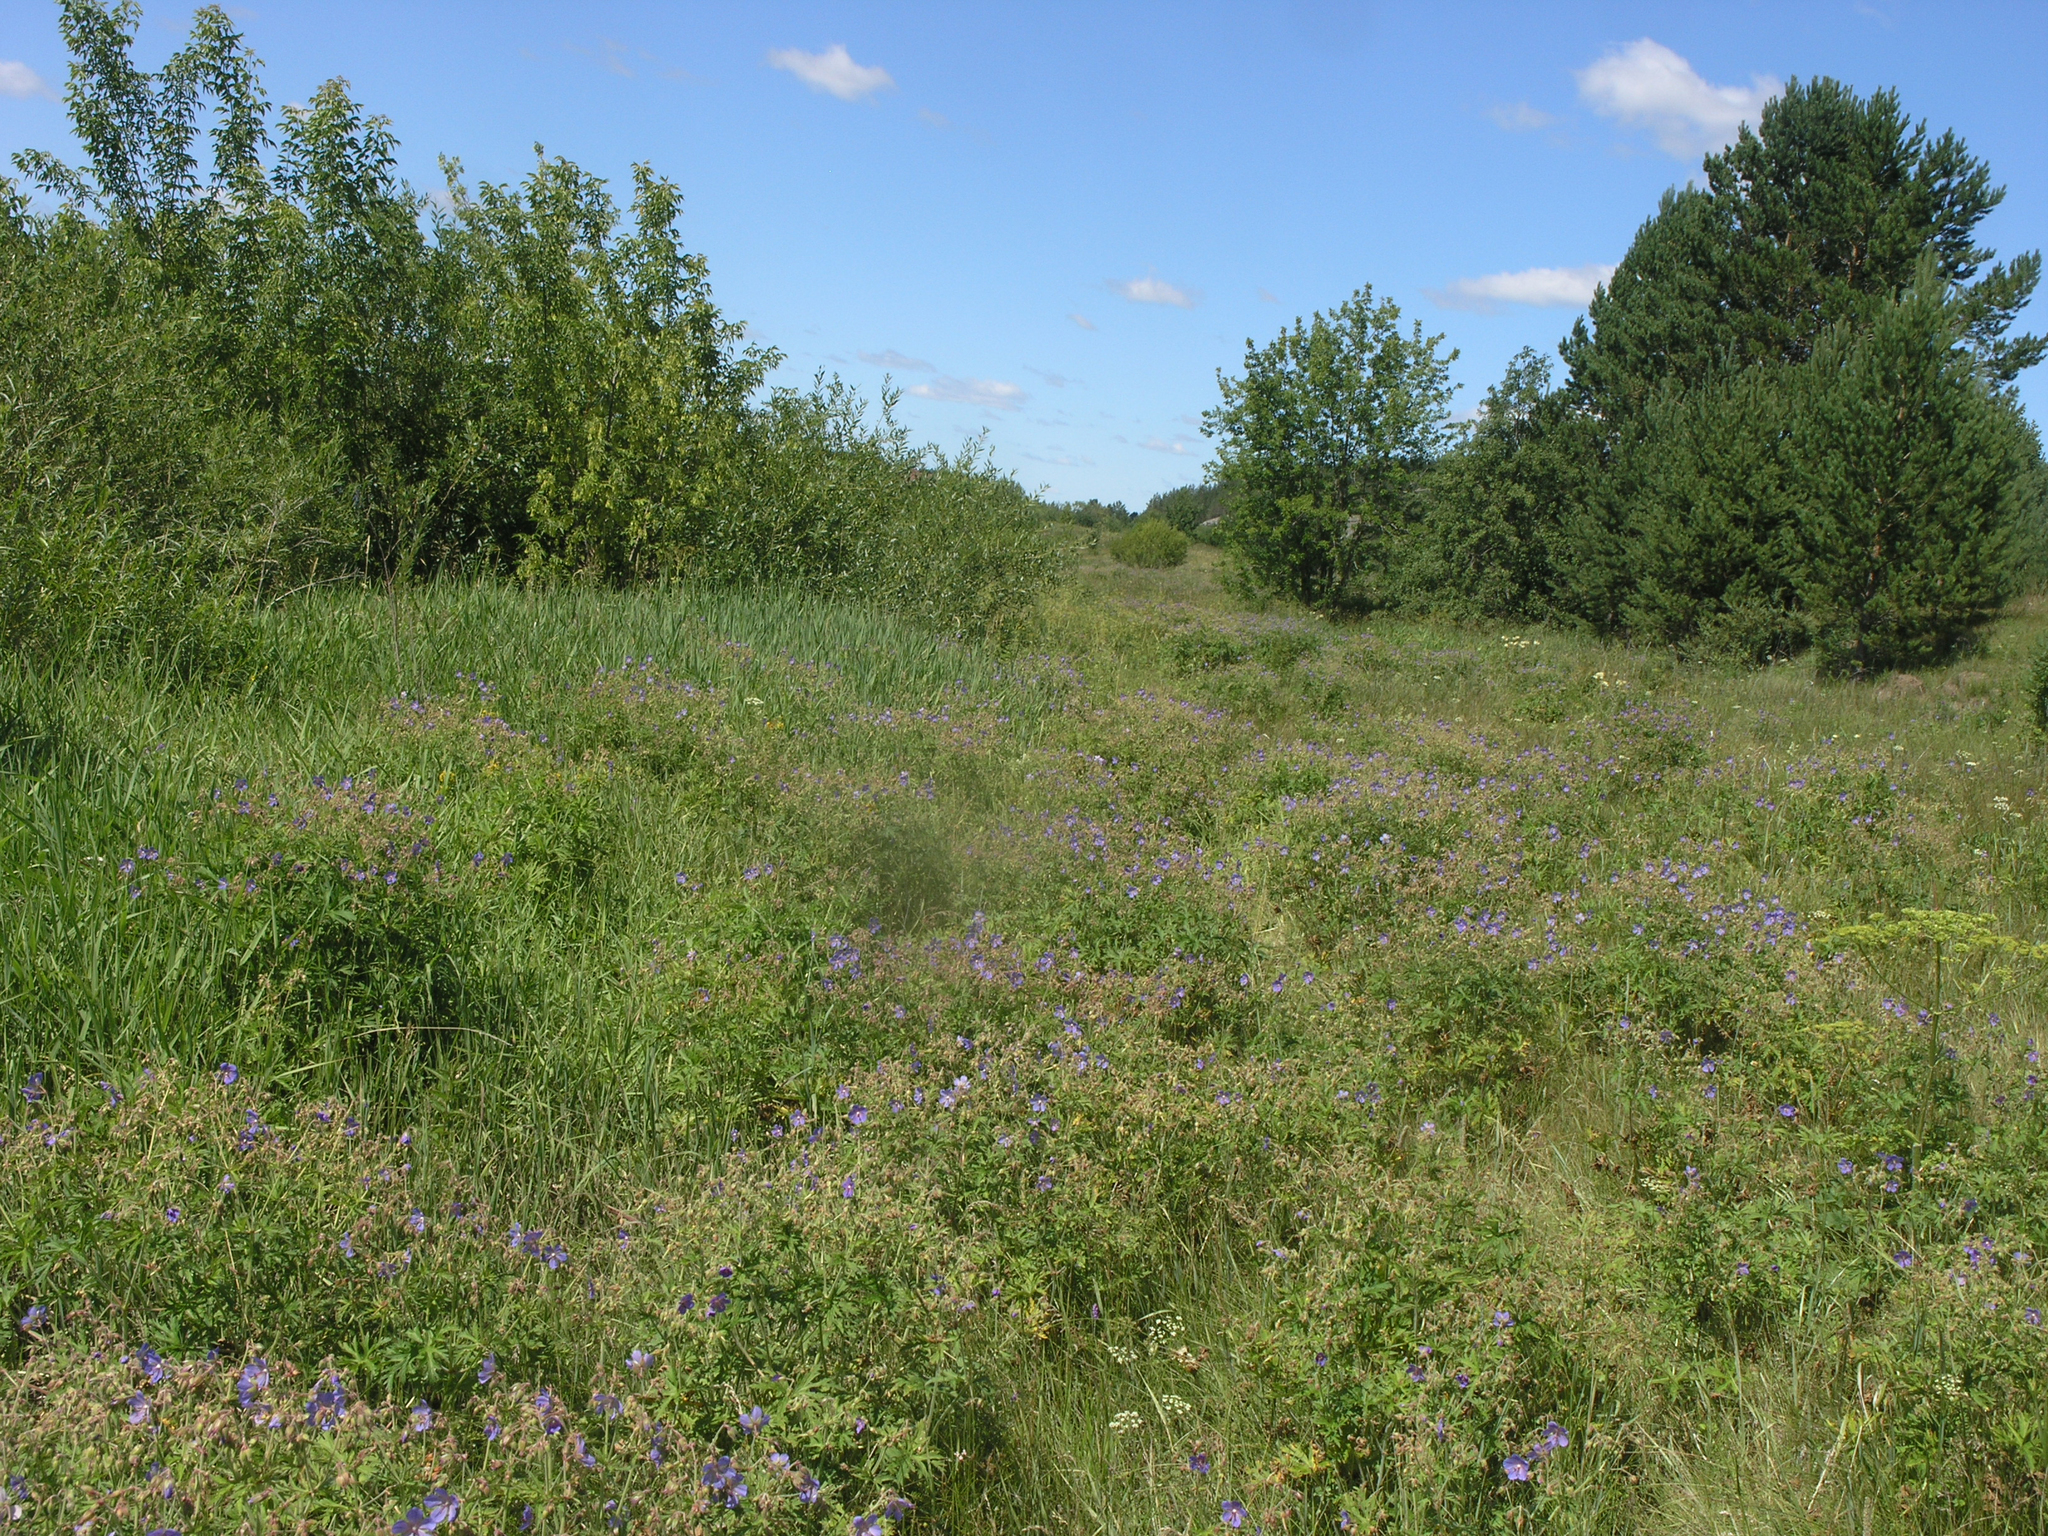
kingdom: Plantae
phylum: Tracheophyta
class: Magnoliopsida
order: Geraniales
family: Geraniaceae
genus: Geranium
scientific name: Geranium pratense
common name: Meadow crane's-bill
